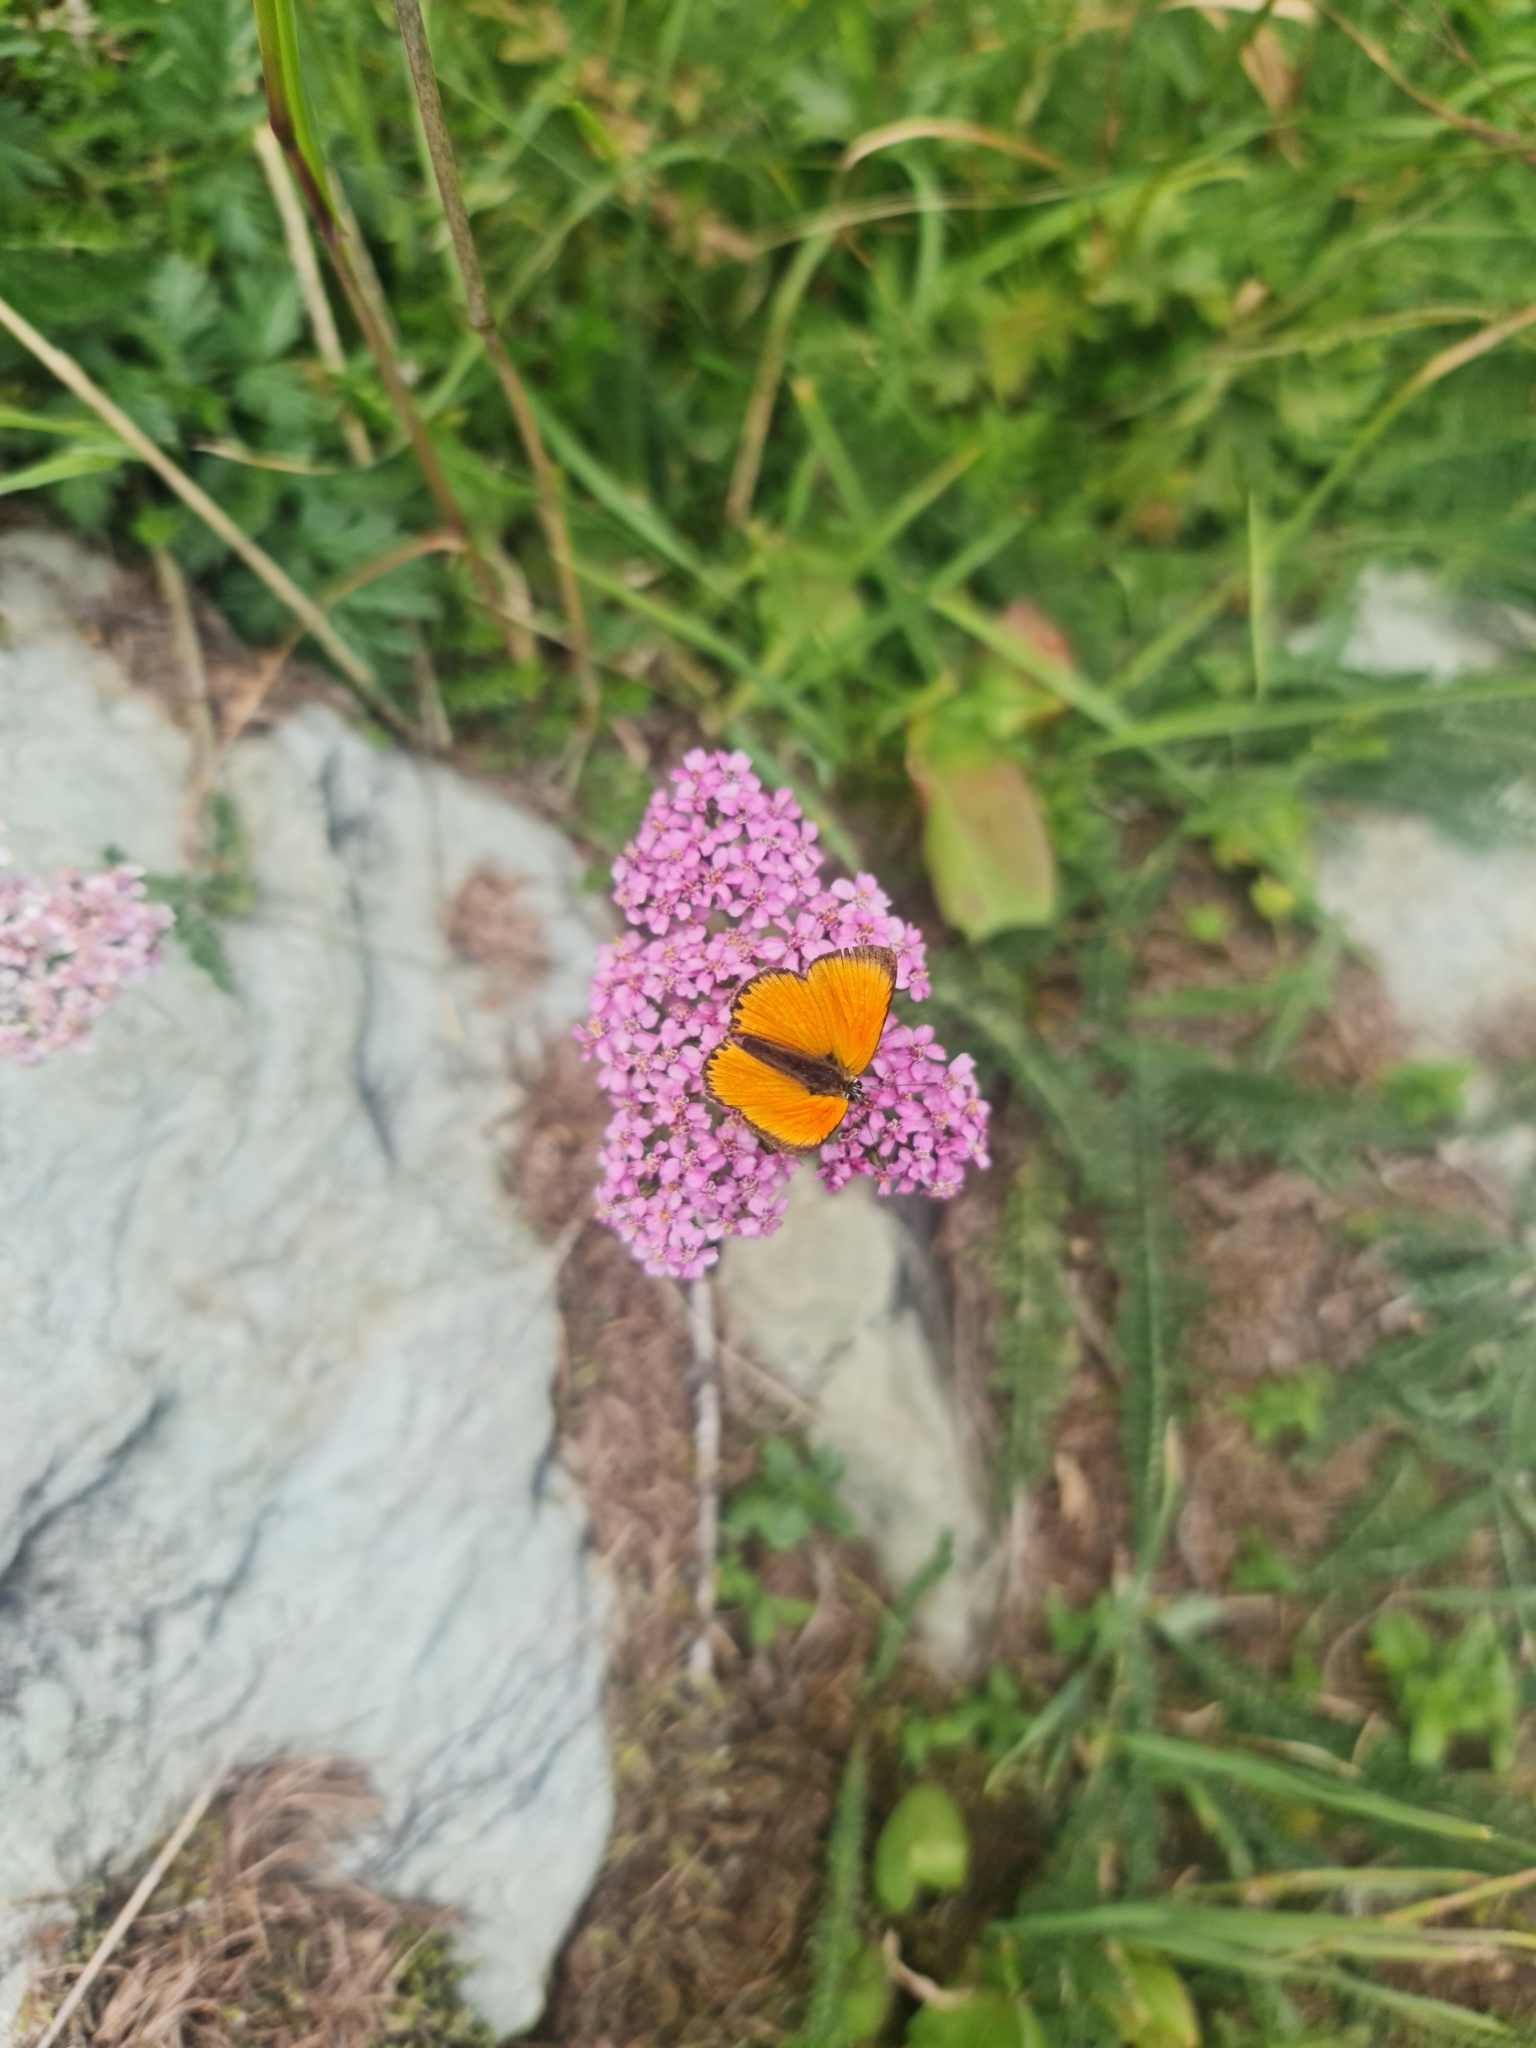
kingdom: Animalia
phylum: Arthropoda
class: Insecta
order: Lepidoptera
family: Lycaenidae
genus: Lycaena
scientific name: Lycaena virgaureae
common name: Scarce copper
